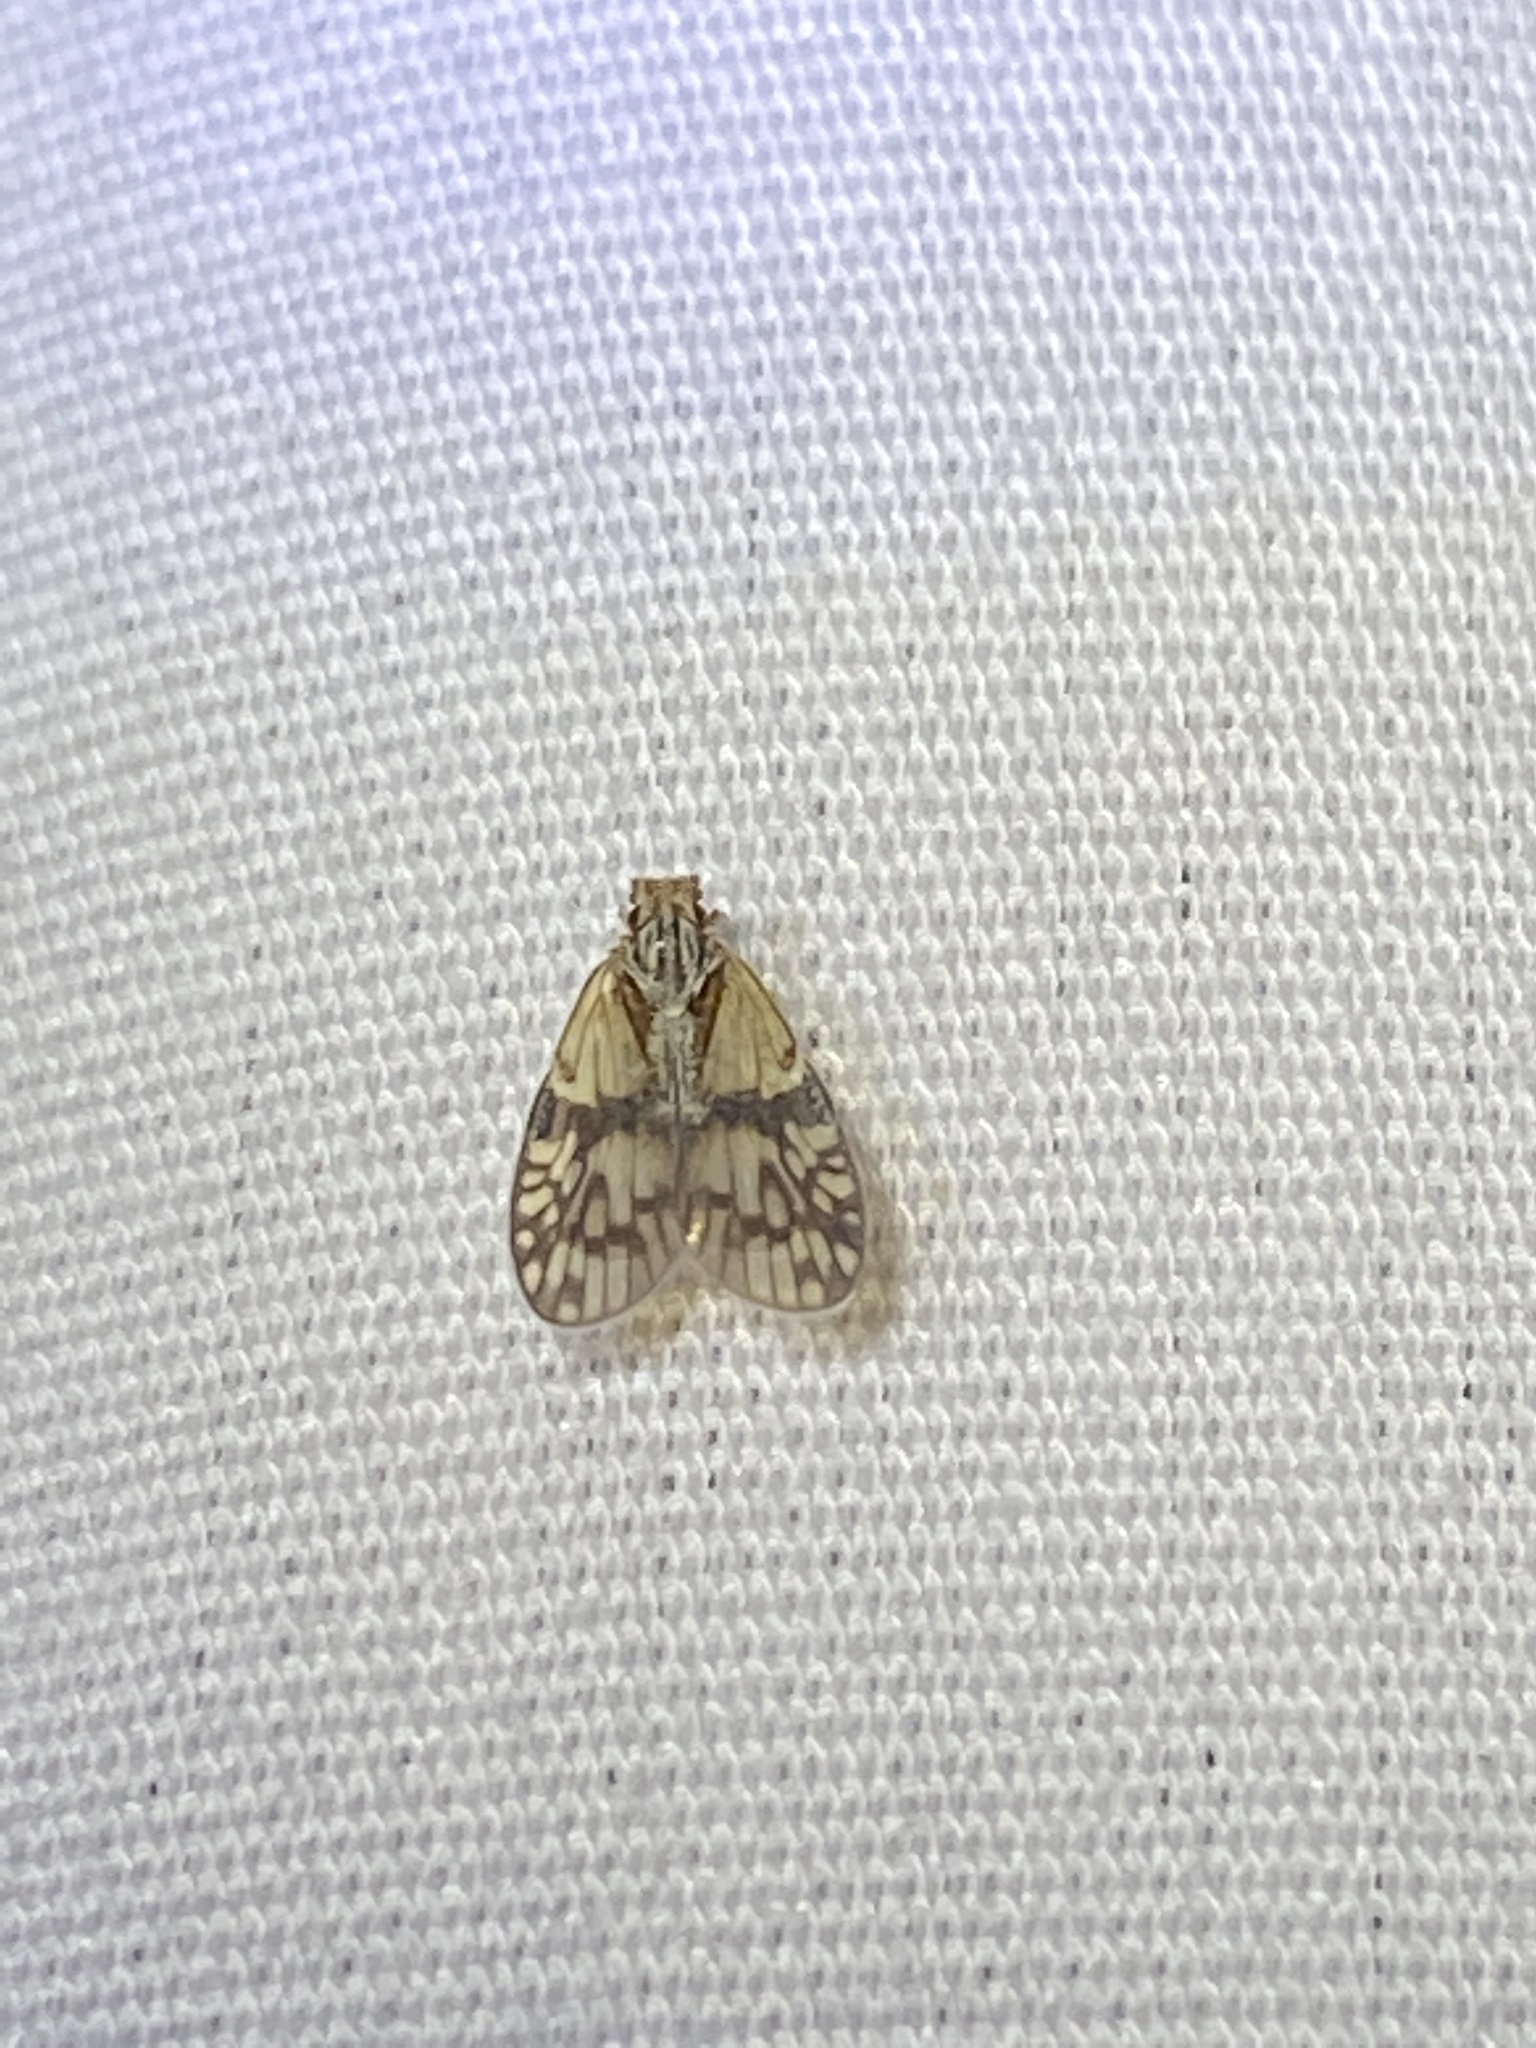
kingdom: Animalia
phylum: Arthropoda
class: Insecta
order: Hemiptera
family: Cixiidae
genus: Bothriocera
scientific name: Bothriocera datuna
